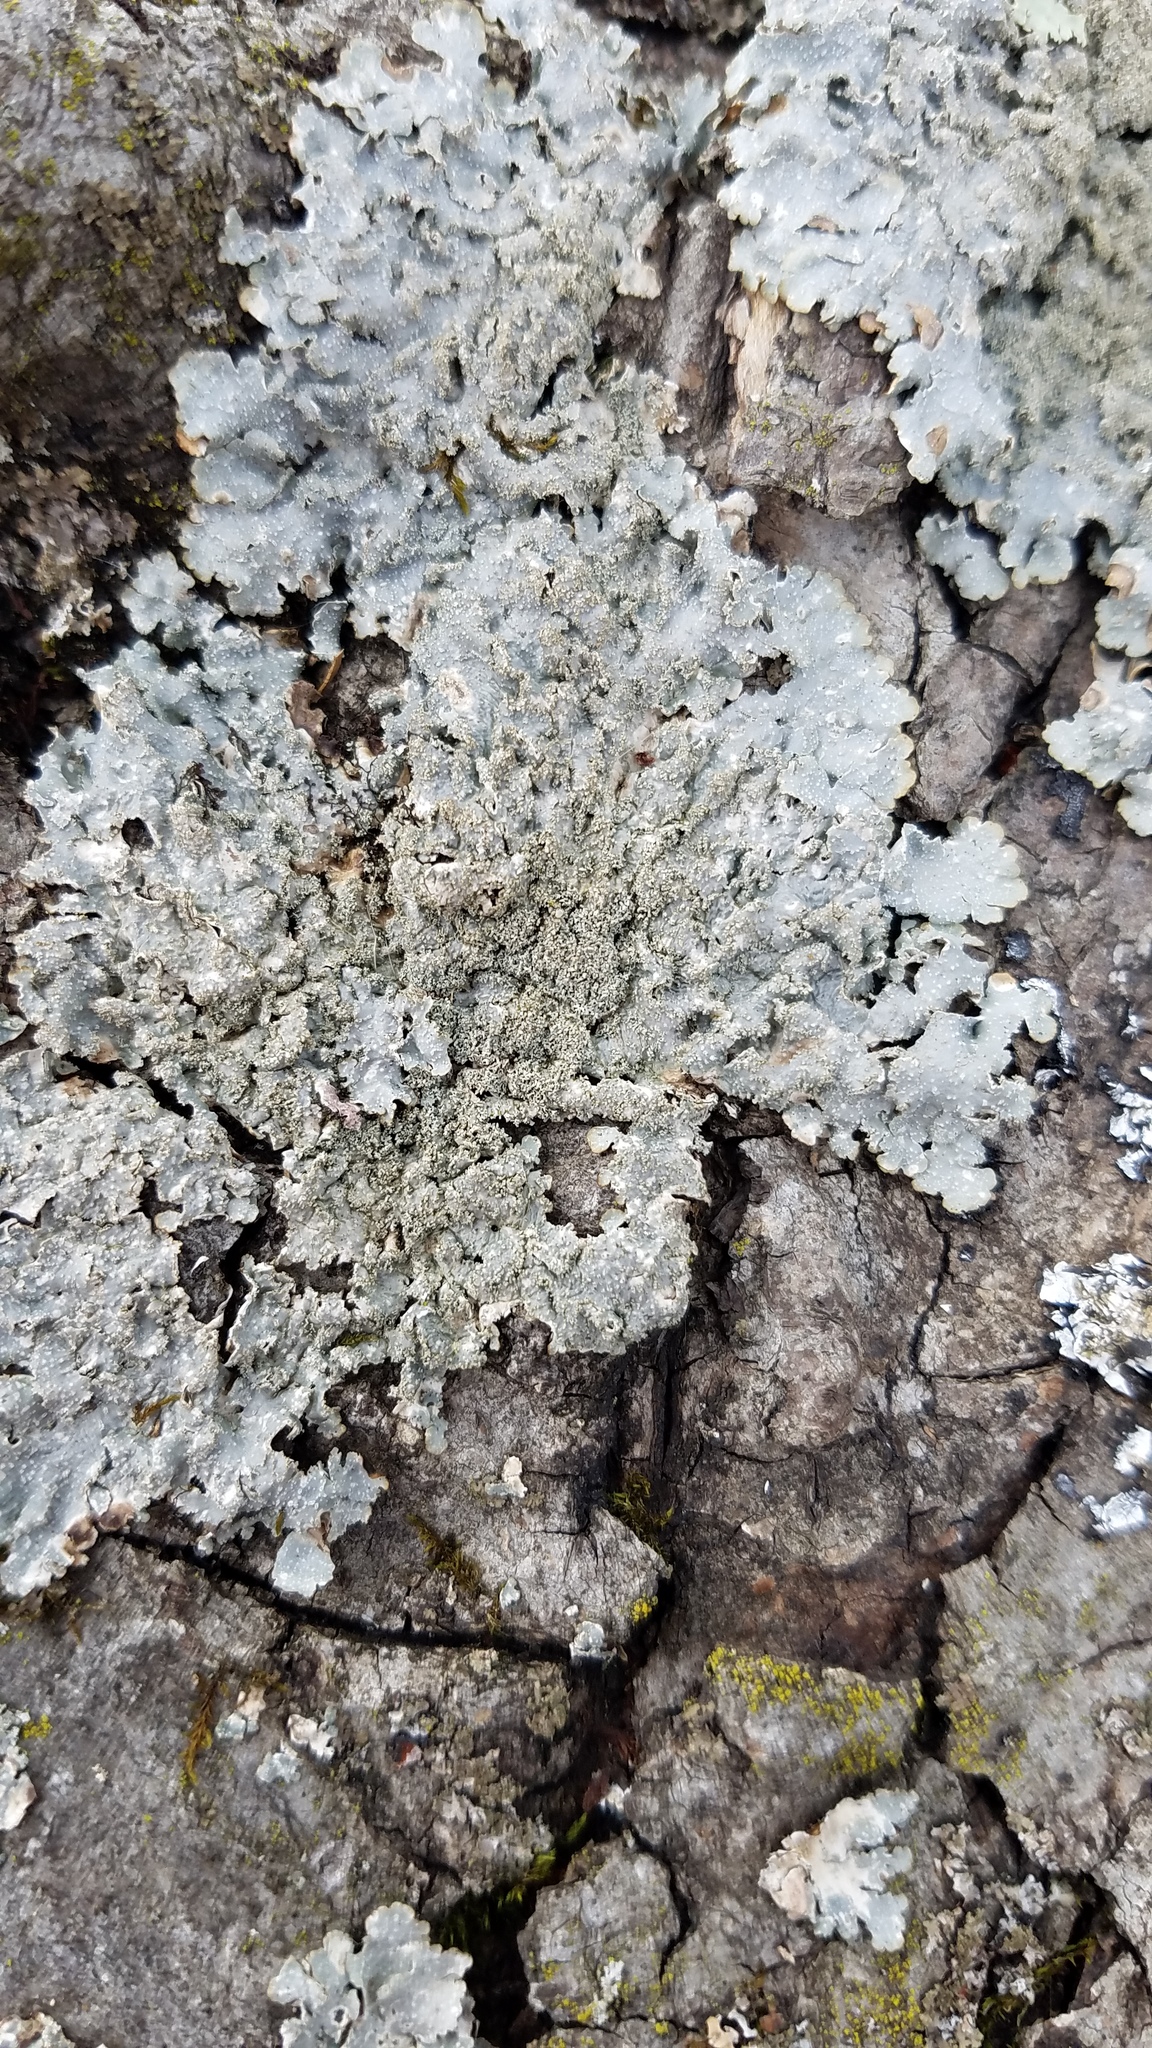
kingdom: Fungi
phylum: Ascomycota
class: Lecanoromycetes
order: Lecanorales
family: Parmeliaceae
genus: Punctelia
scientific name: Punctelia rudecta
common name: Rough speckled shield lichen
